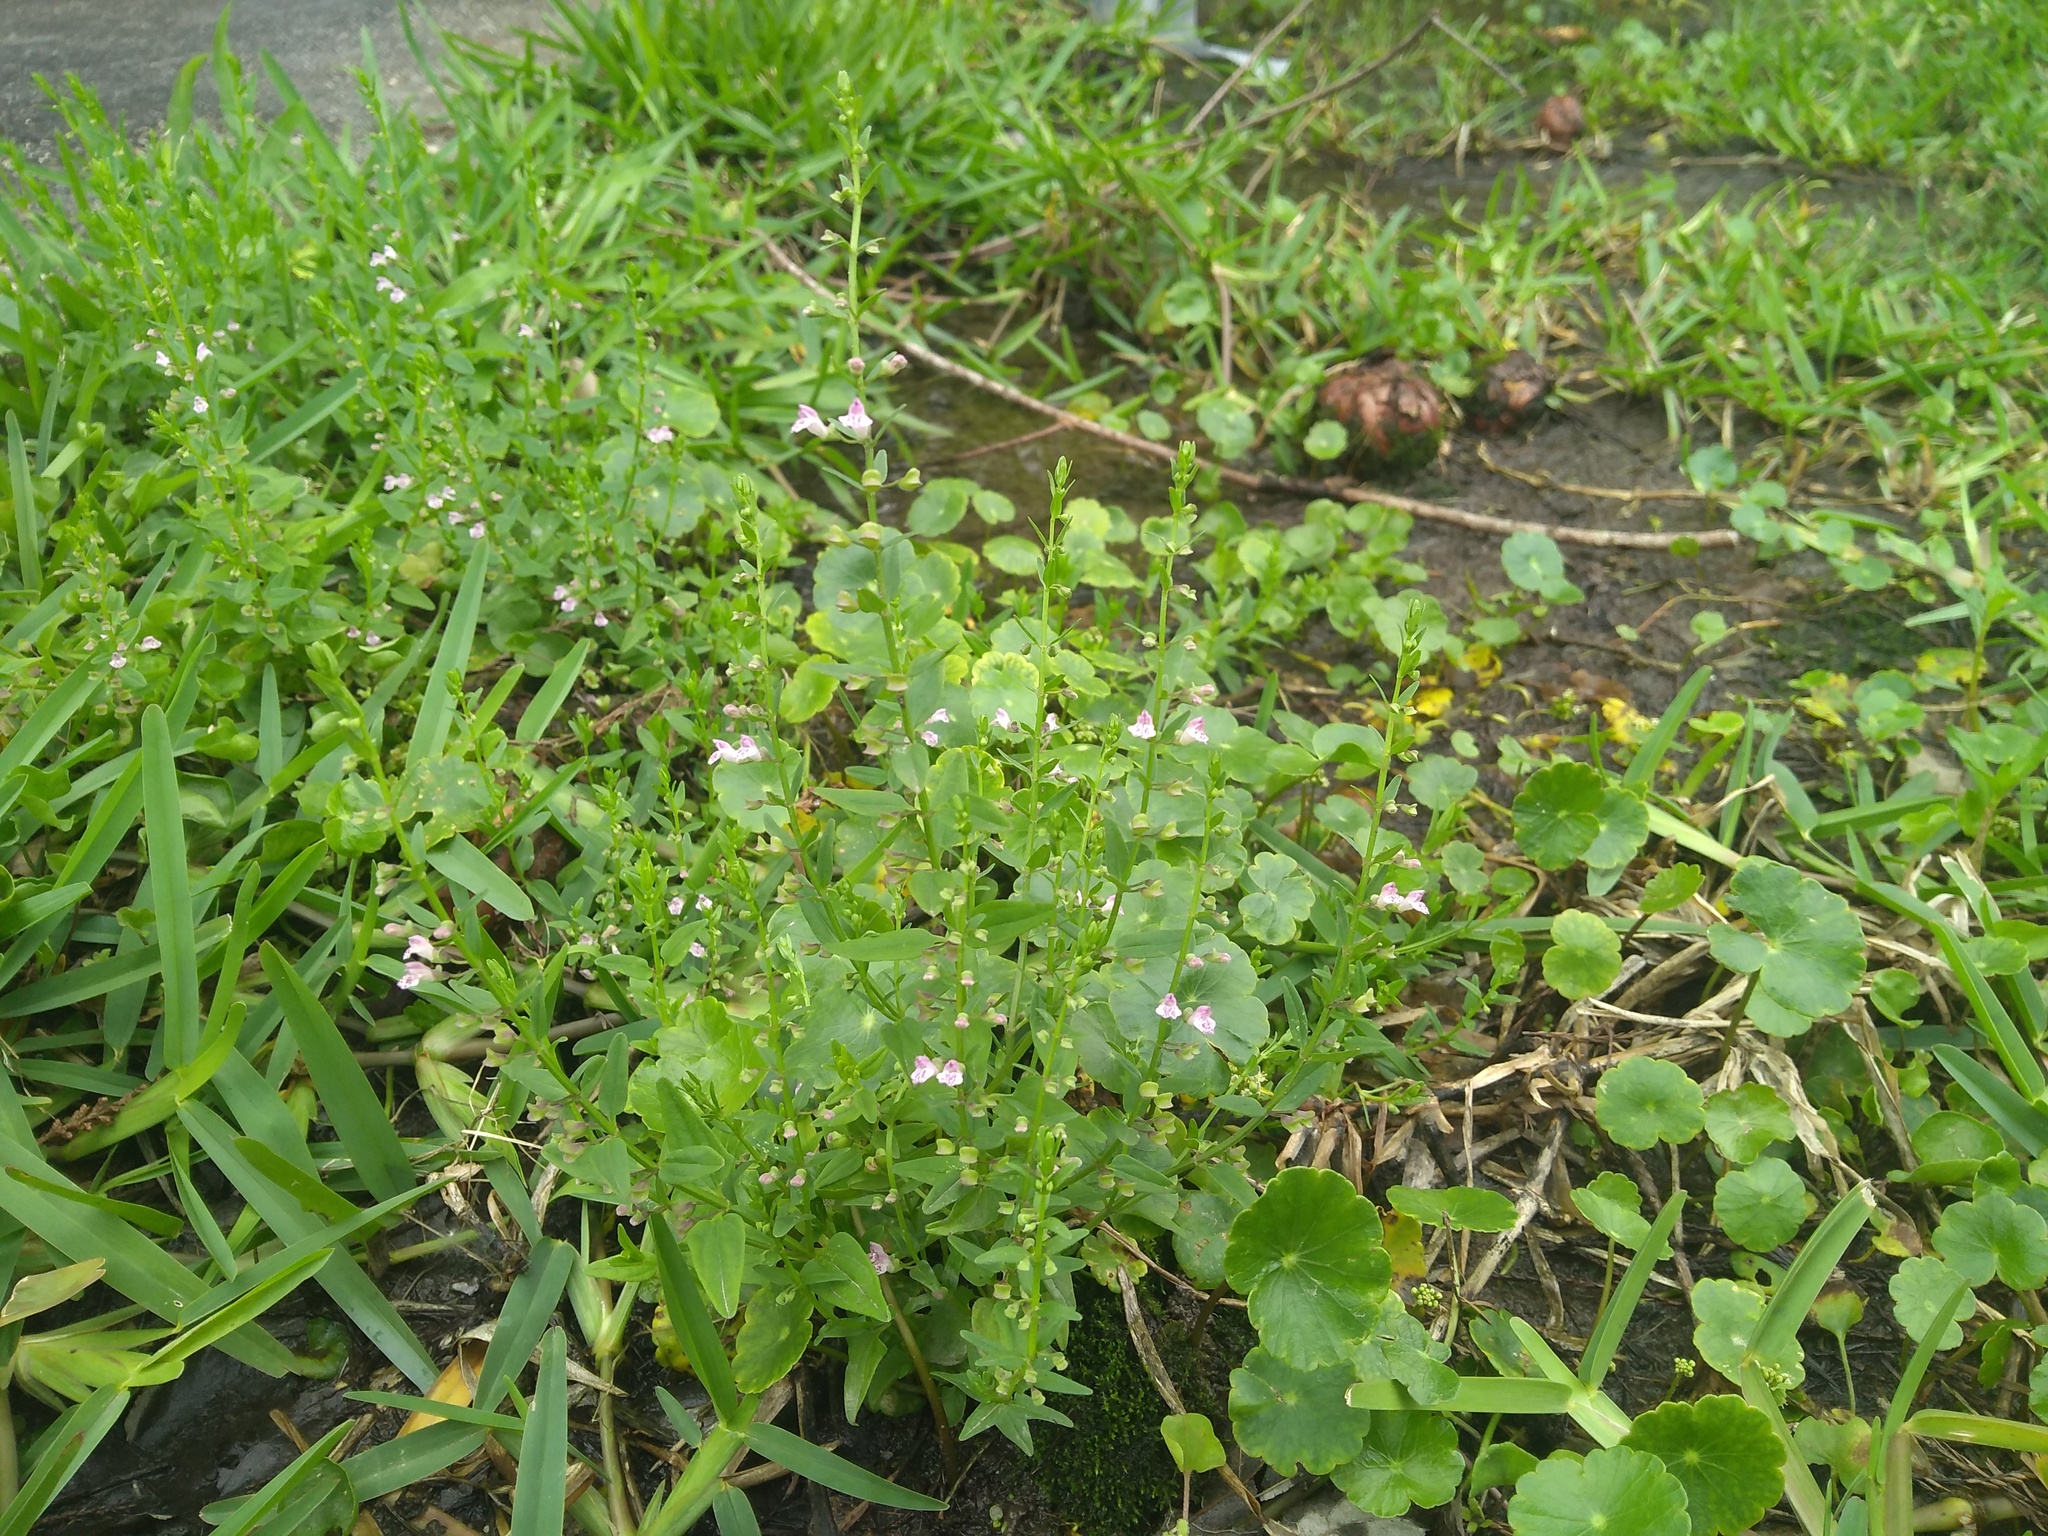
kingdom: Plantae
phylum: Tracheophyta
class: Magnoliopsida
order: Lamiales
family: Lamiaceae
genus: Scutellaria
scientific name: Scutellaria racemosa
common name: South american skullcap
